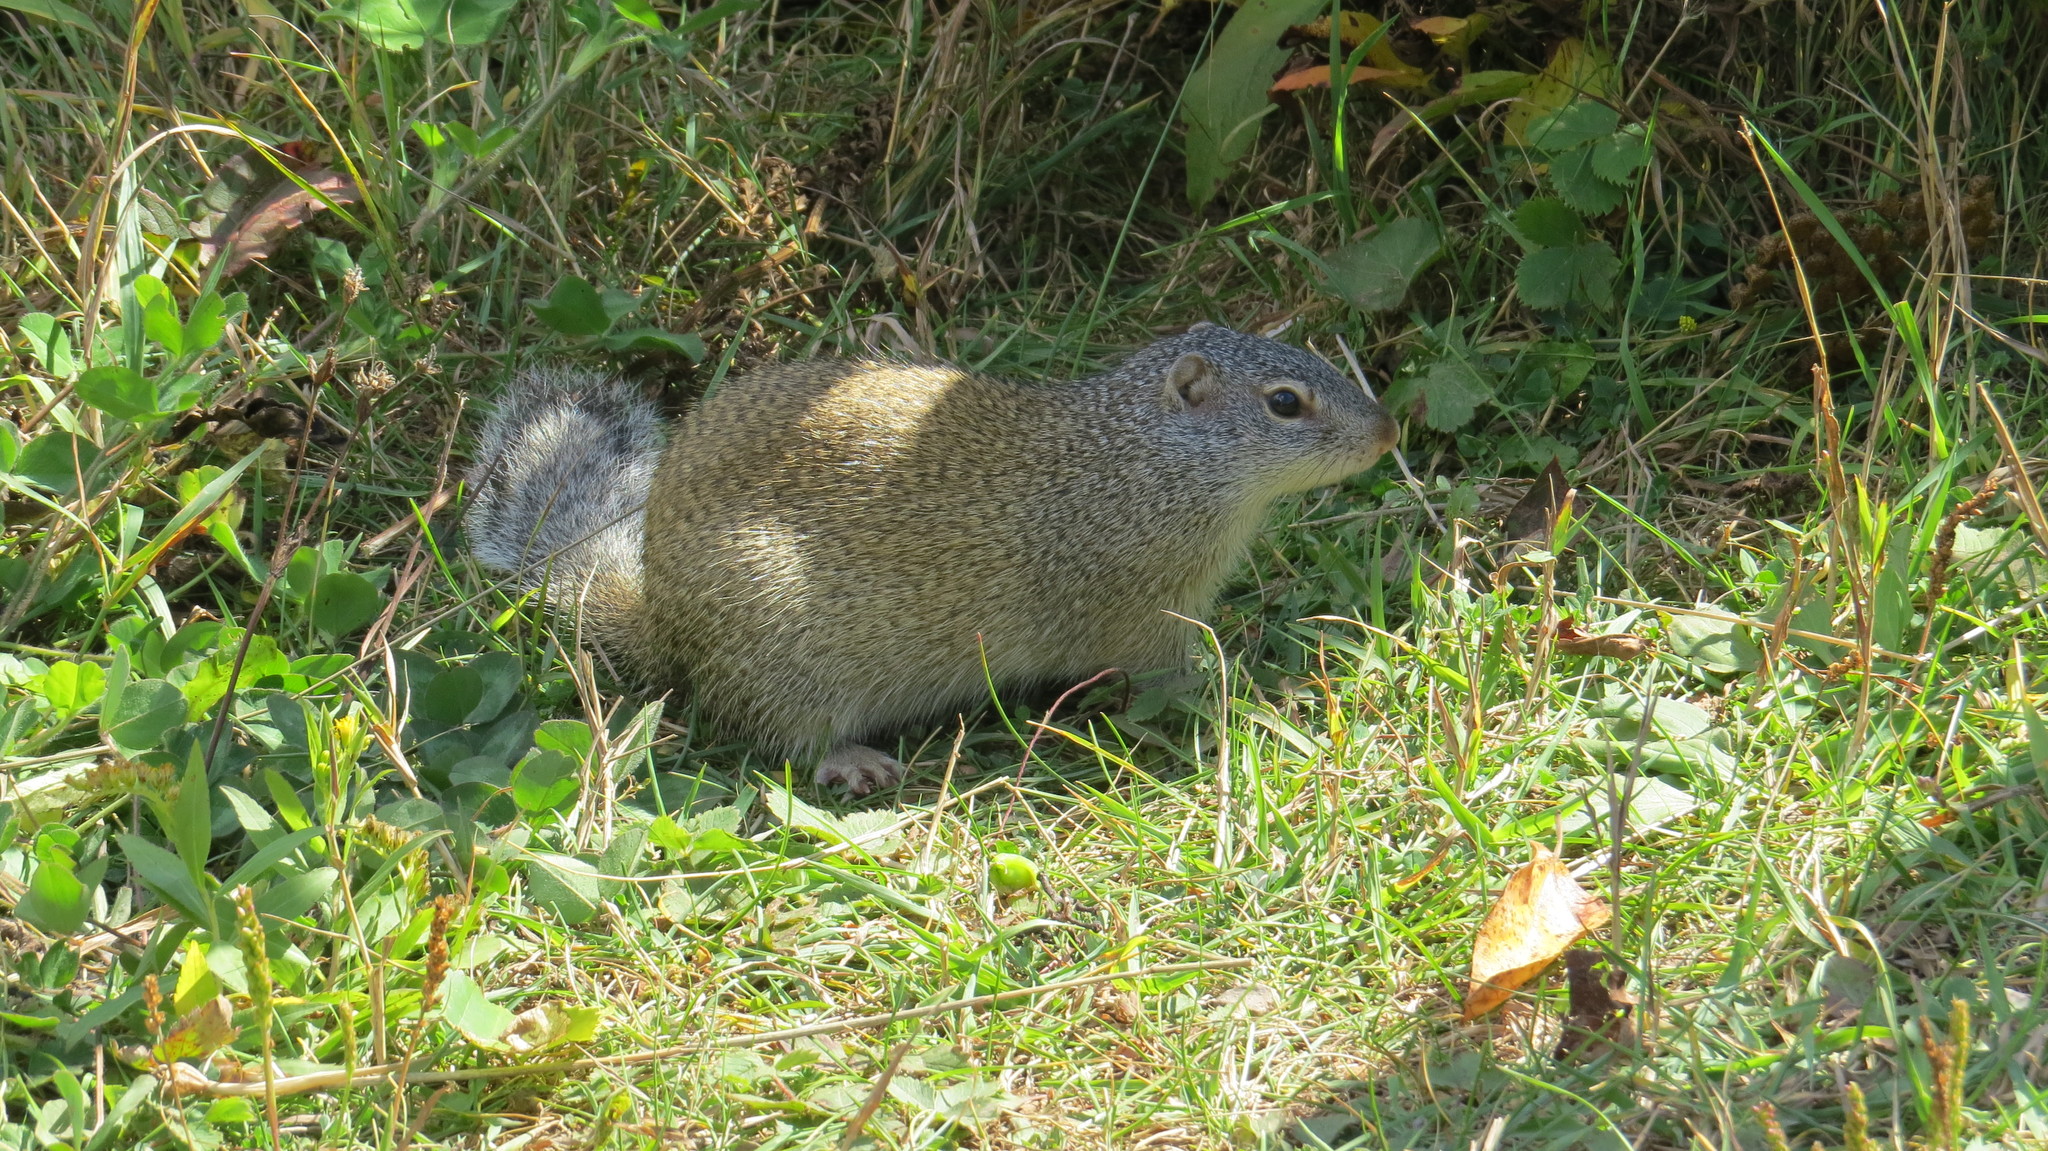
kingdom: Animalia
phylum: Chordata
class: Mammalia
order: Rodentia
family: Sciuridae
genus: Poliocitellus
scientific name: Poliocitellus franklinii
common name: Franklin's ground squirrel
